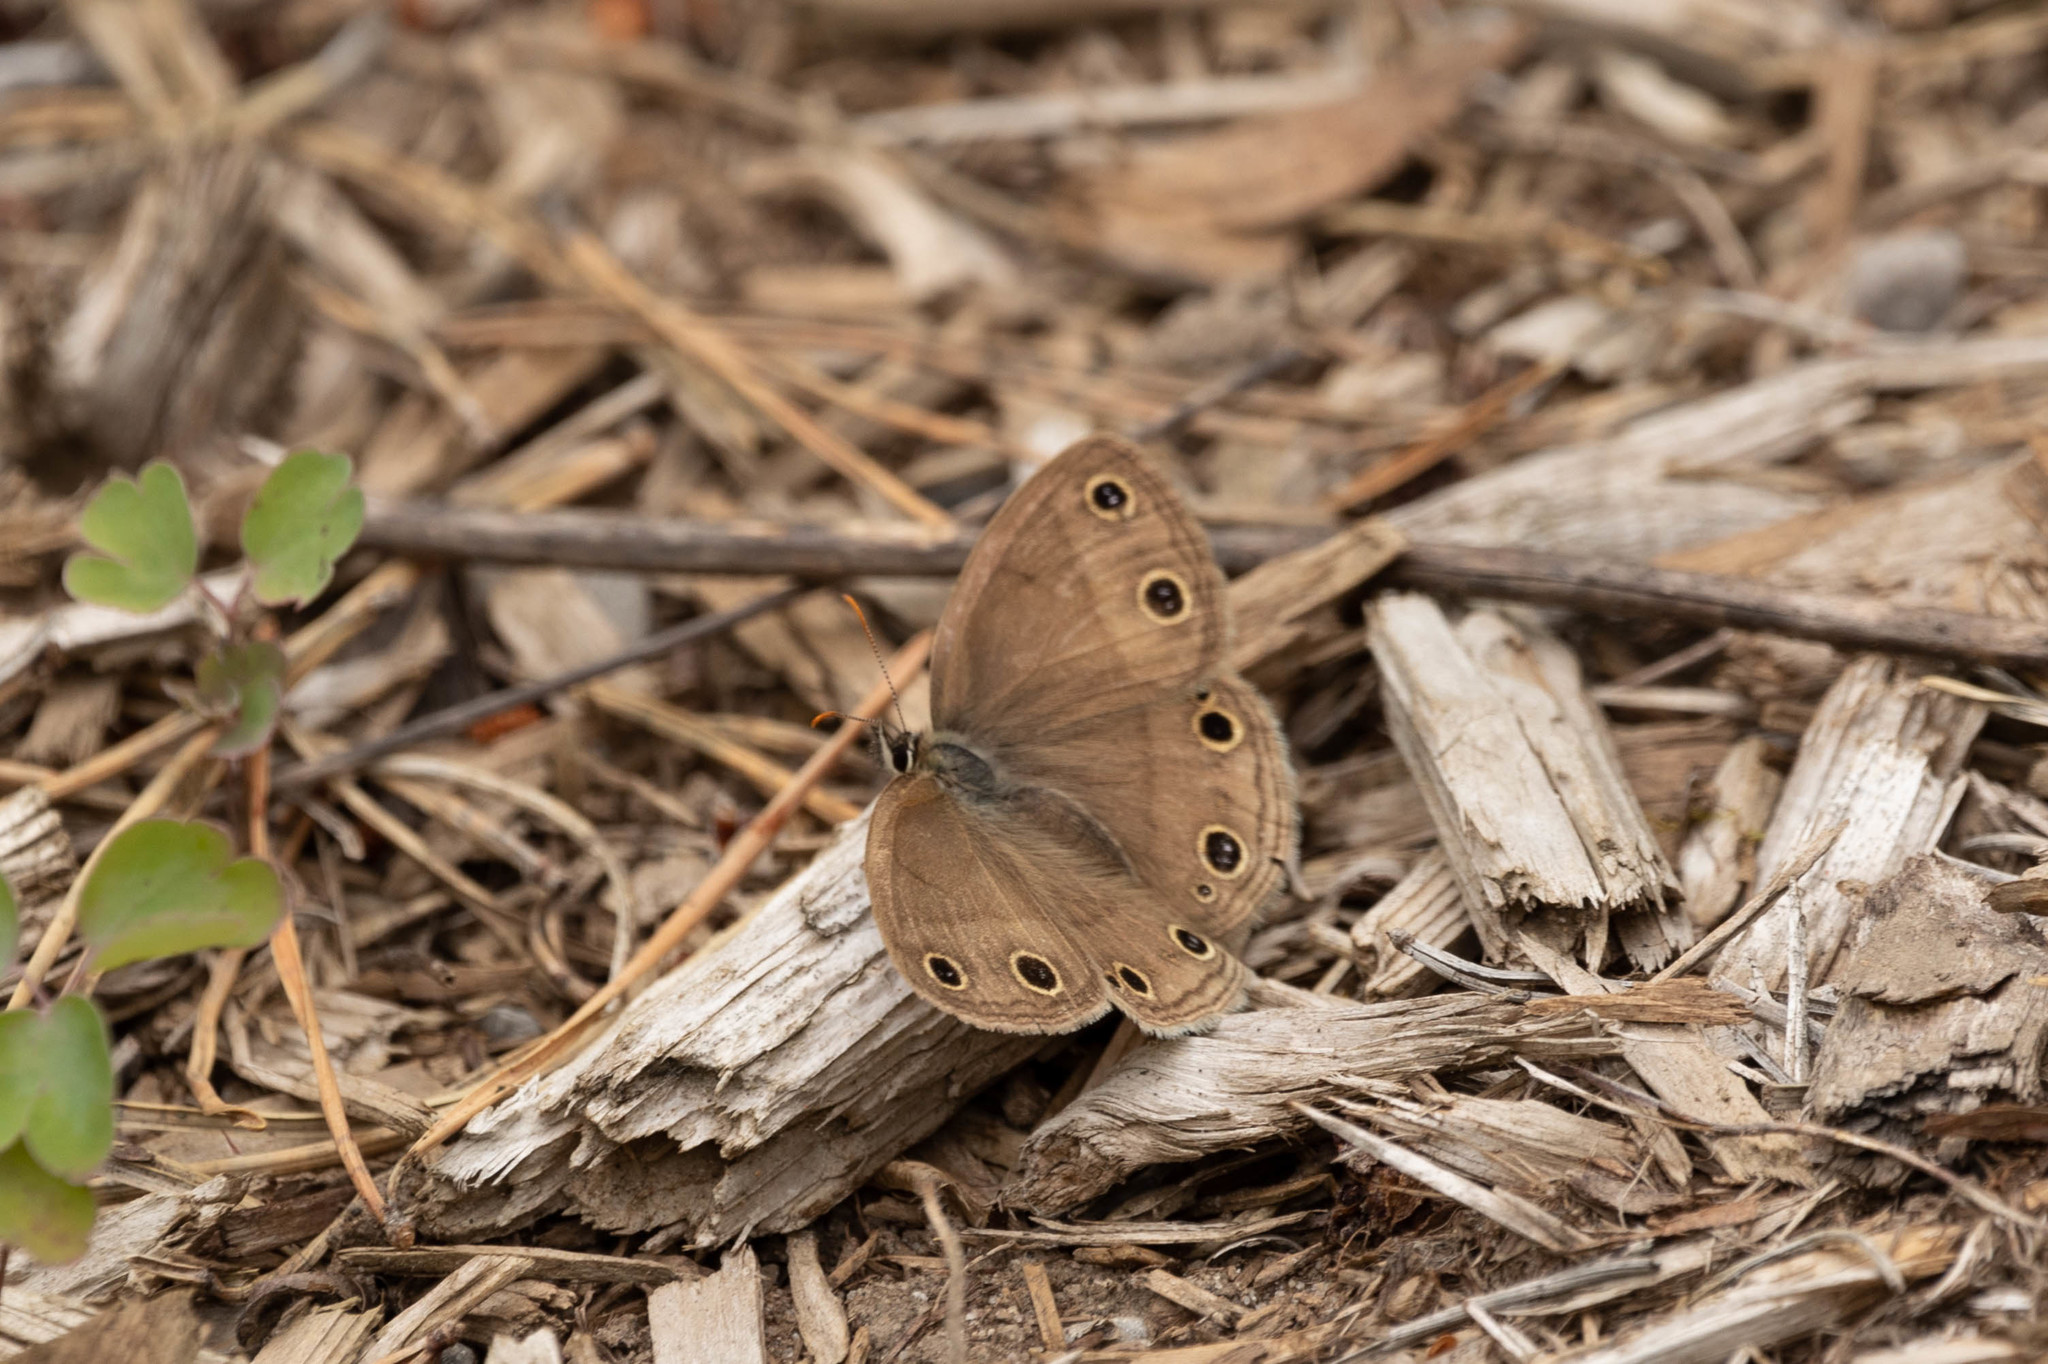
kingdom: Animalia
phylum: Arthropoda
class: Insecta
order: Lepidoptera
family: Nymphalidae
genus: Euptychia
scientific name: Euptychia cymela
